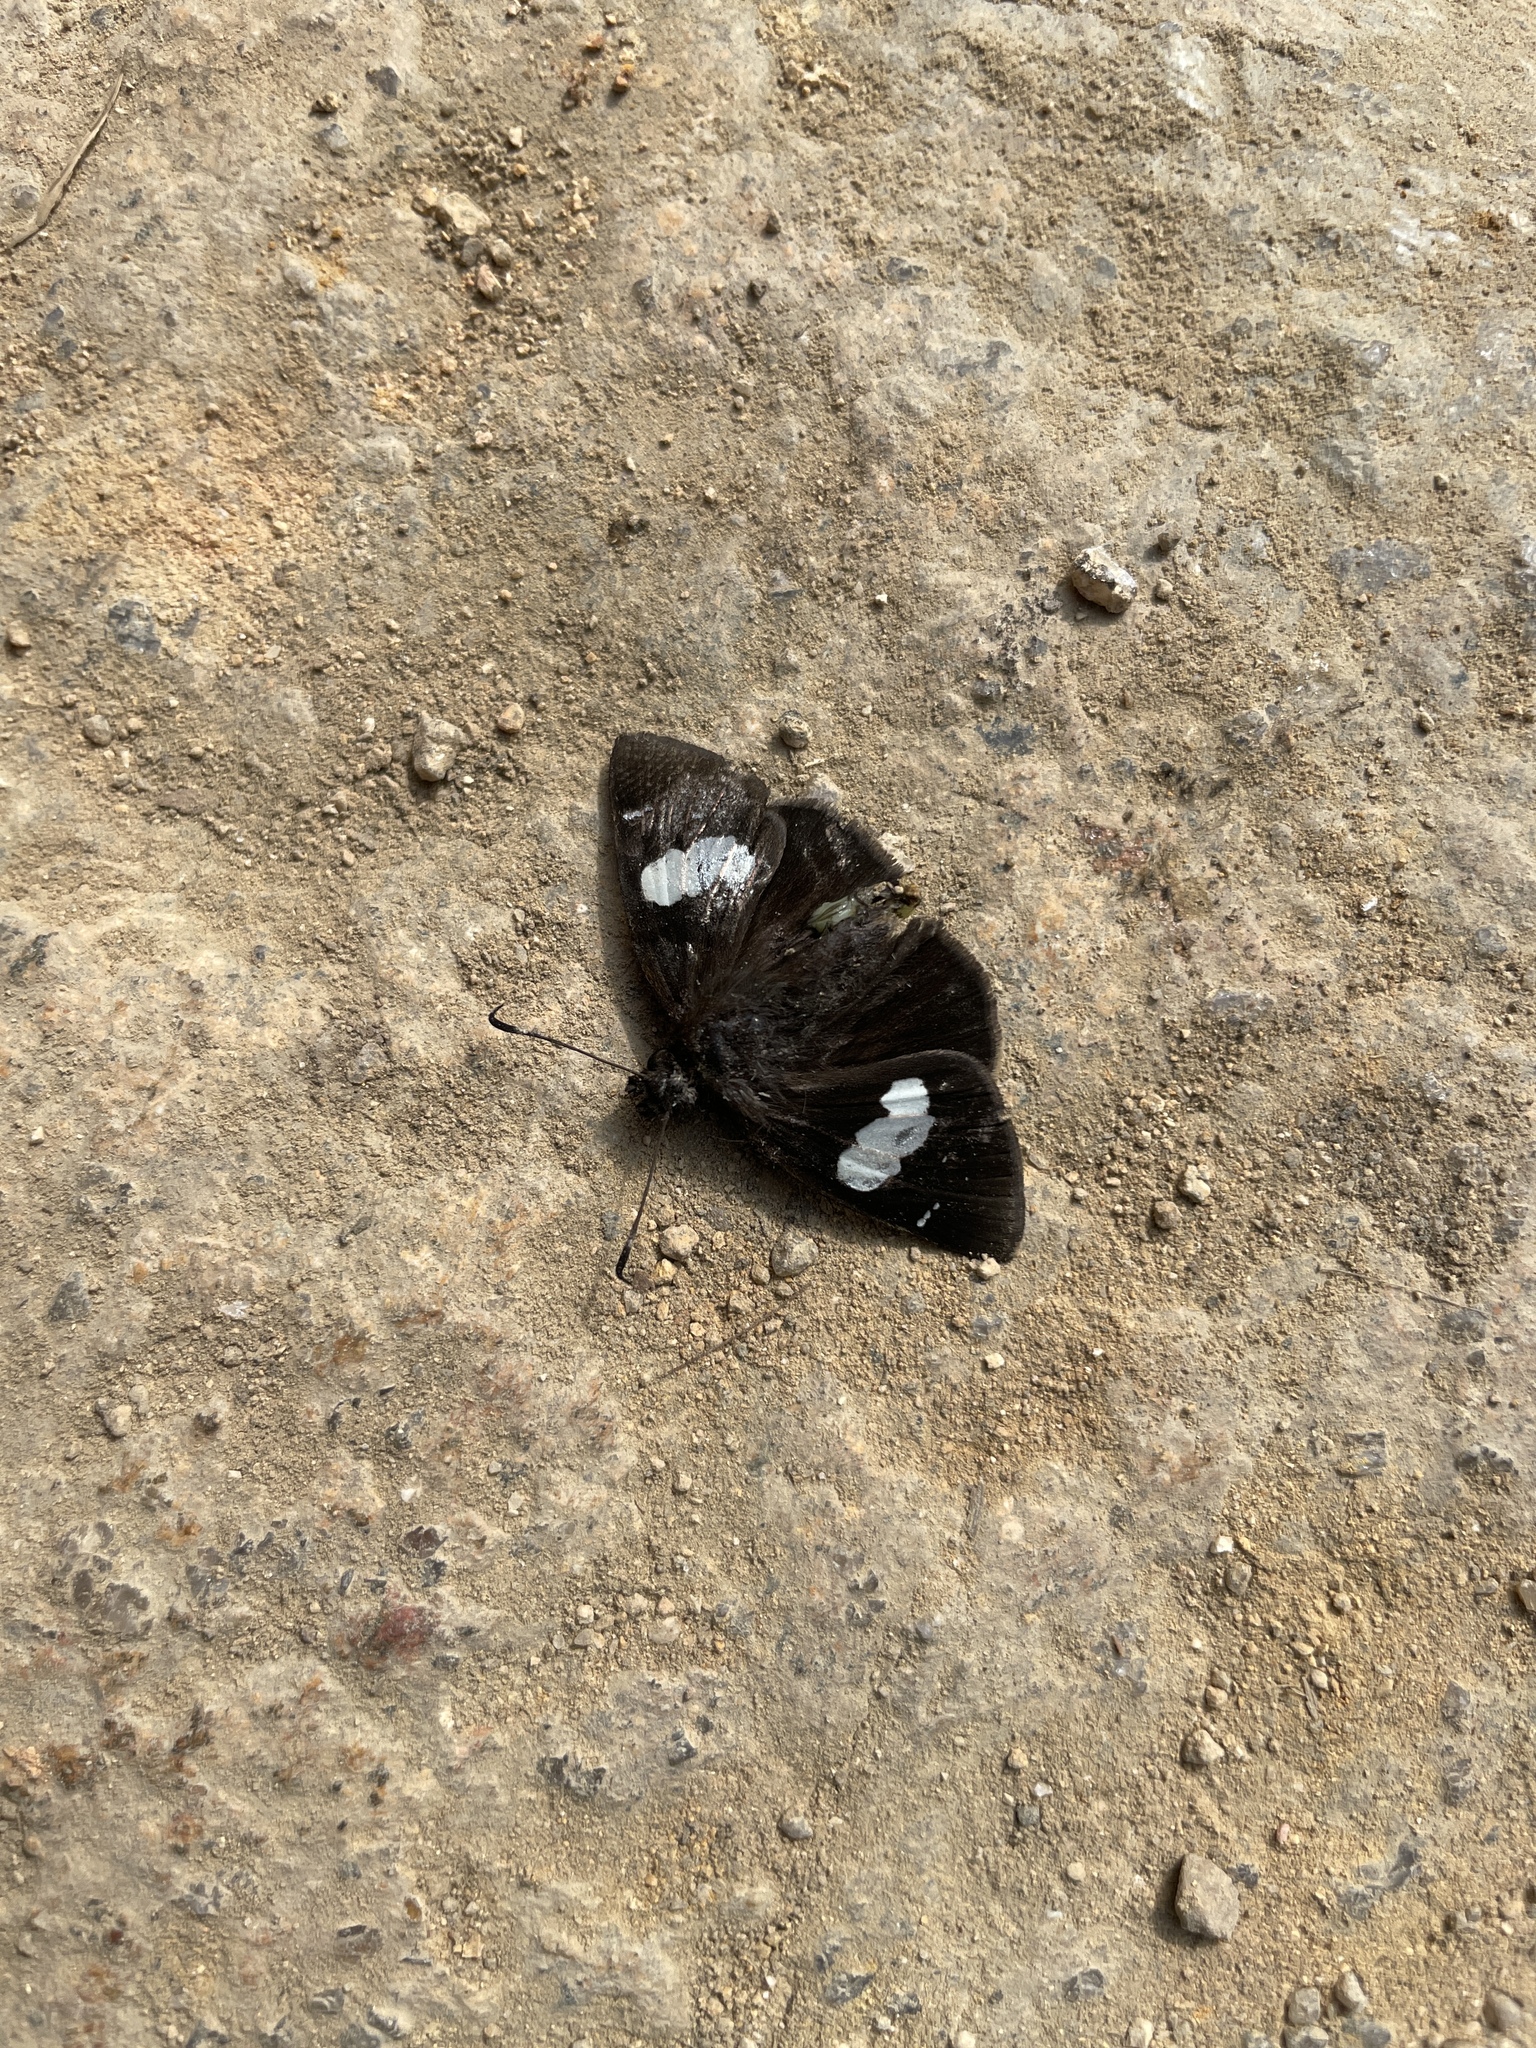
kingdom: Animalia
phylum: Arthropoda
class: Insecta
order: Lepidoptera
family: Hesperiidae
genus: Notocrypta
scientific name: Notocrypta curvifascia
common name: Restricted demon
